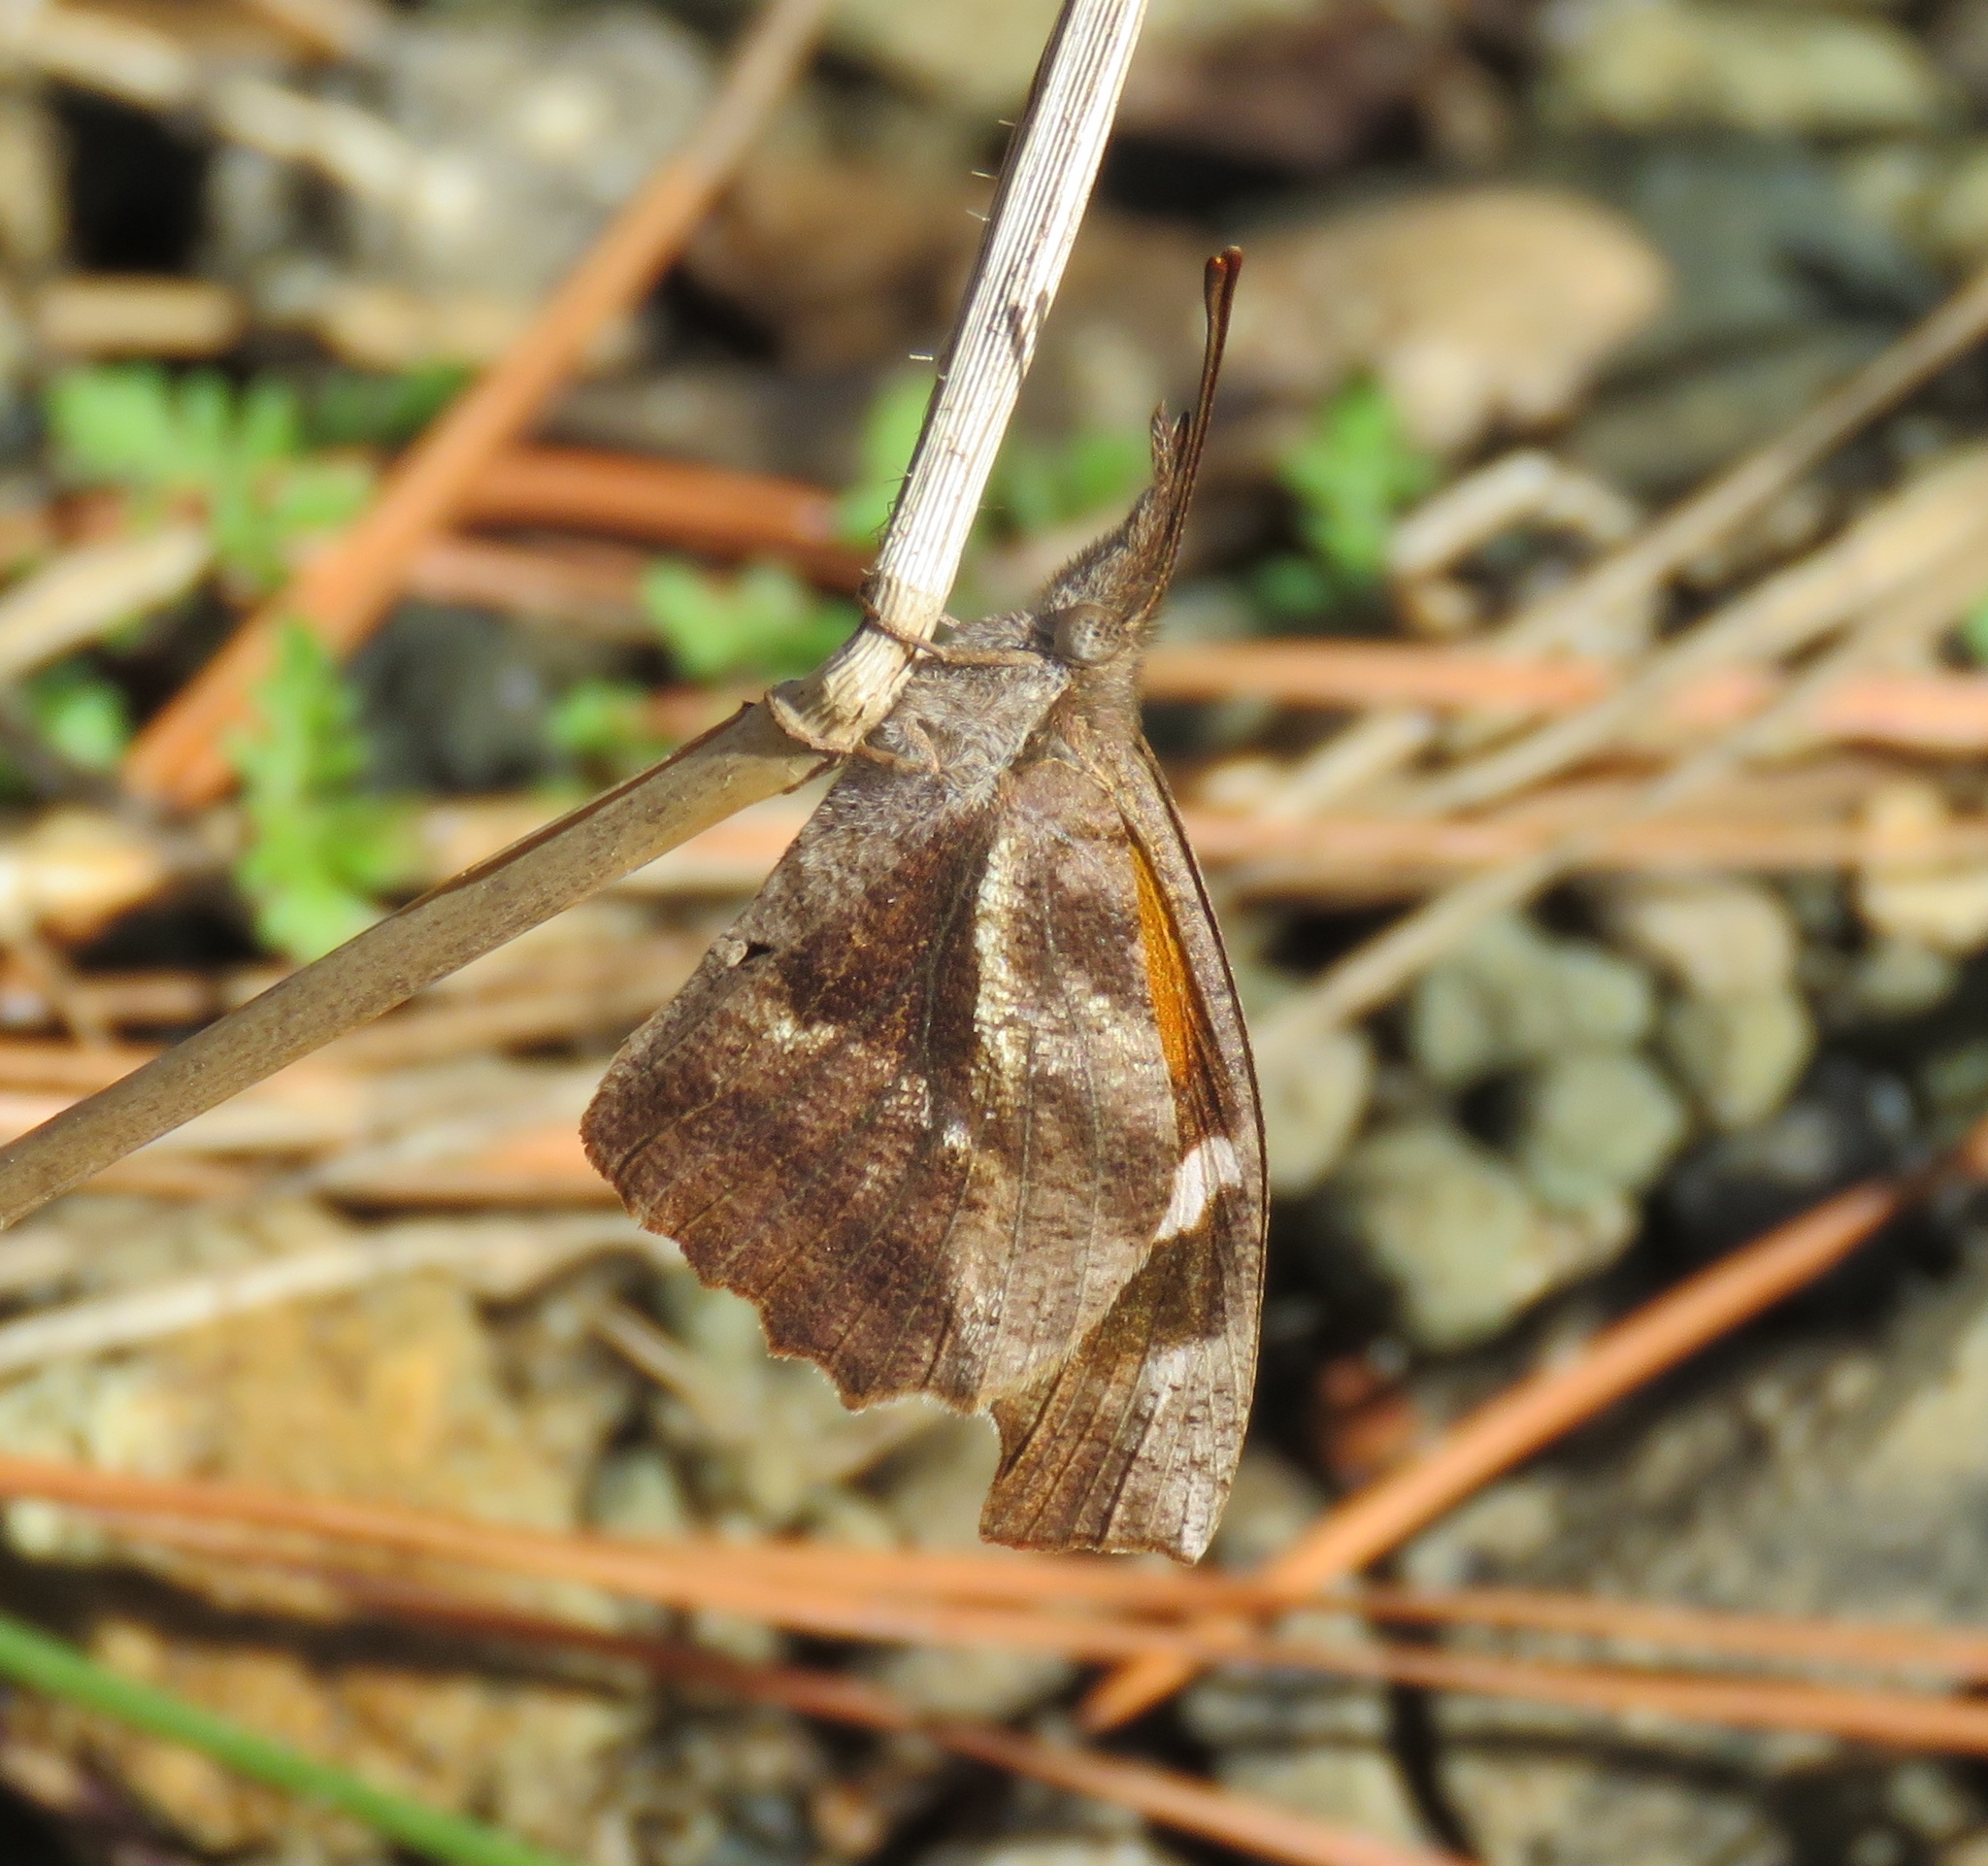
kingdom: Animalia
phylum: Arthropoda
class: Insecta
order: Lepidoptera
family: Nymphalidae
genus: Libytheana
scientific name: Libytheana carinenta
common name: American snout
